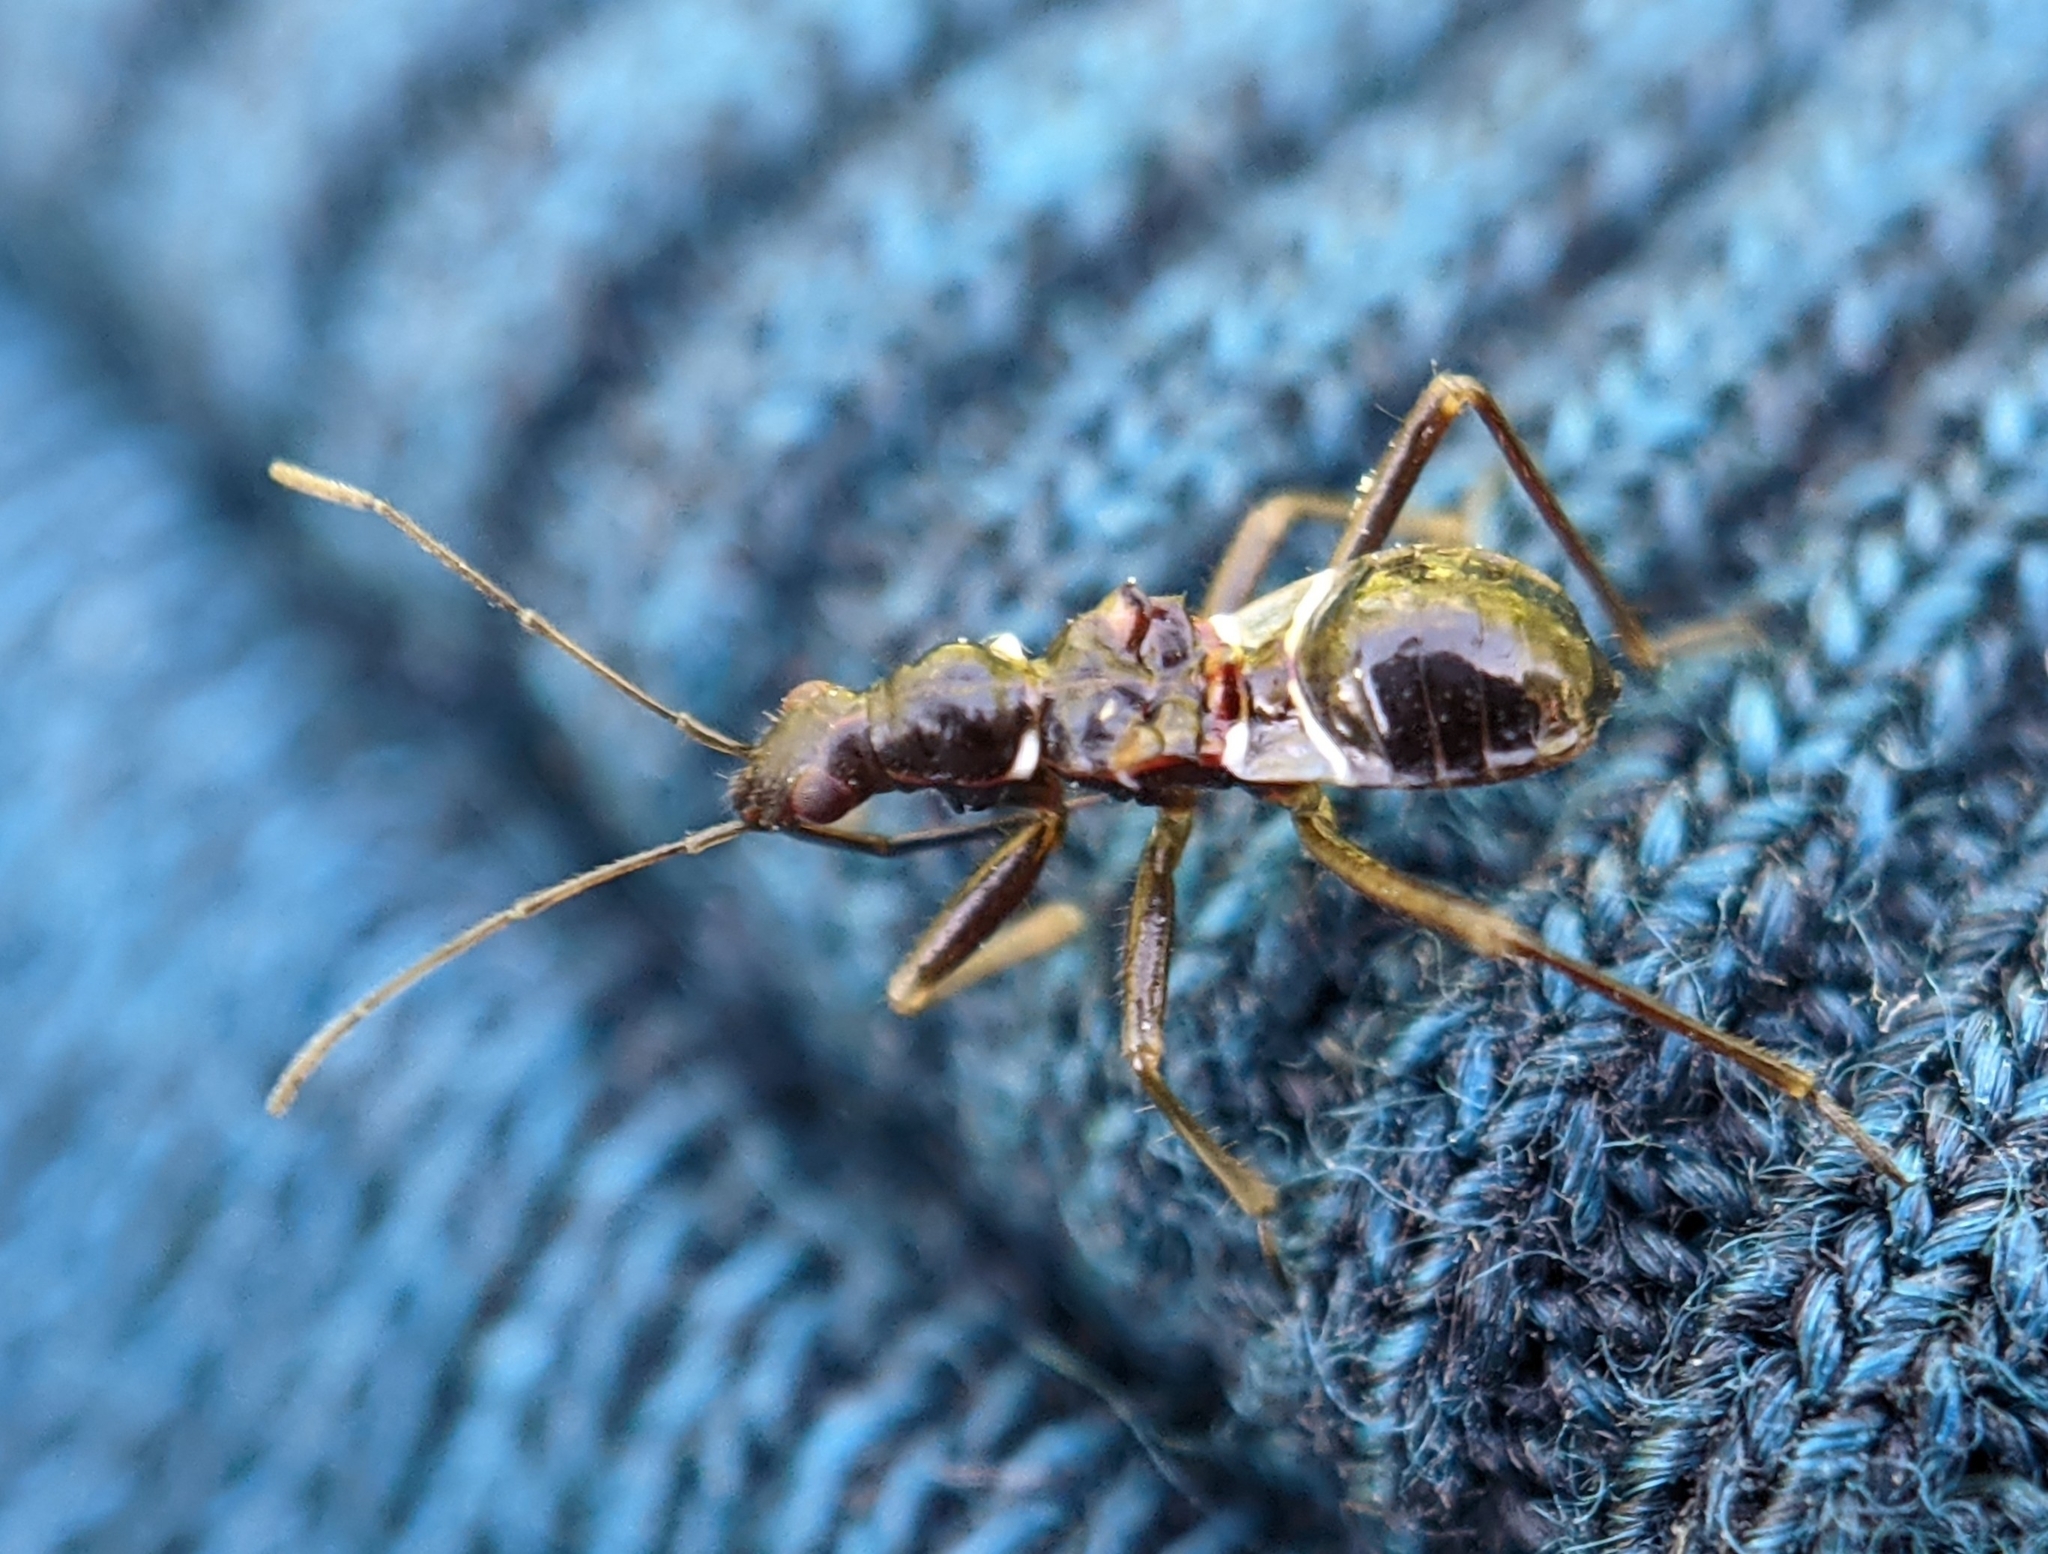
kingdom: Animalia
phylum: Arthropoda
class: Insecta
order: Hemiptera
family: Nabidae
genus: Himacerus
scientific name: Himacerus mirmicoides
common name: Ant damsel bug
